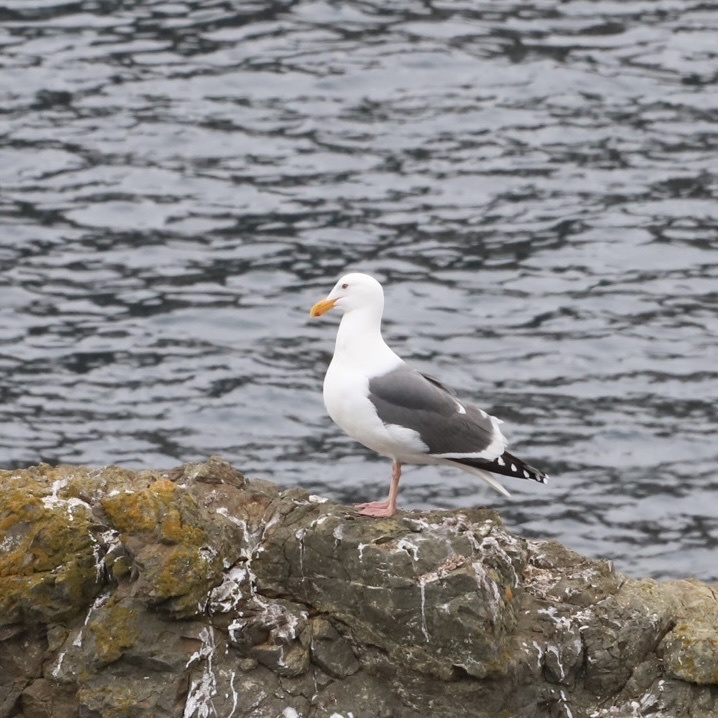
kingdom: Animalia
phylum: Chordata
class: Aves
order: Charadriiformes
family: Laridae
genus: Larus
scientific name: Larus occidentalis
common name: Western gull
